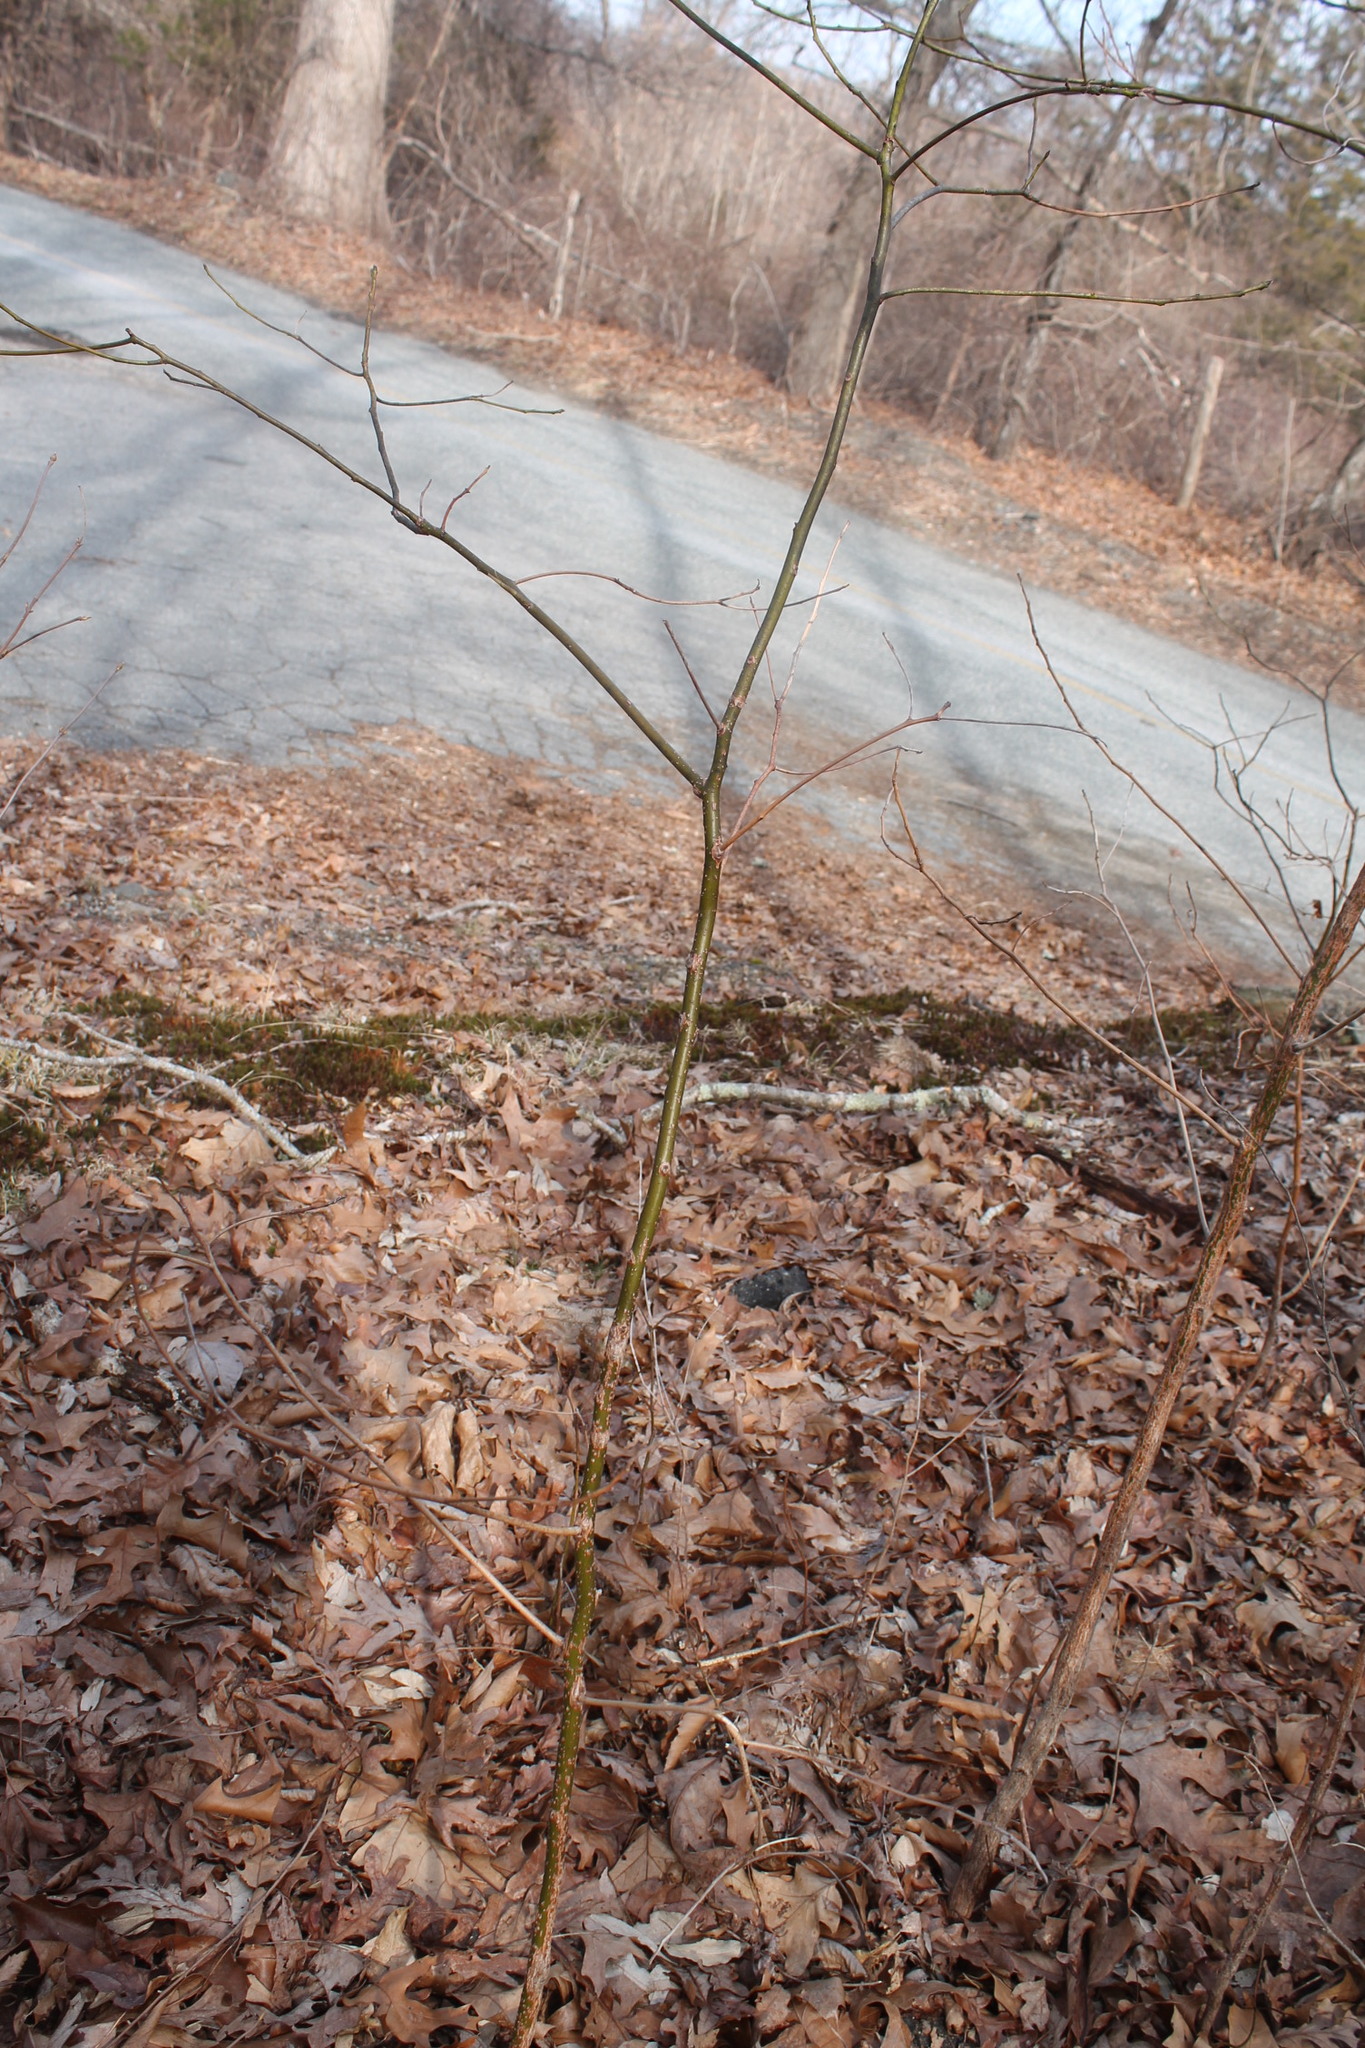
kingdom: Plantae
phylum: Tracheophyta
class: Magnoliopsida
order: Saxifragales
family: Altingiaceae
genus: Liquidambar
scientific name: Liquidambar styraciflua
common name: Sweet gum
